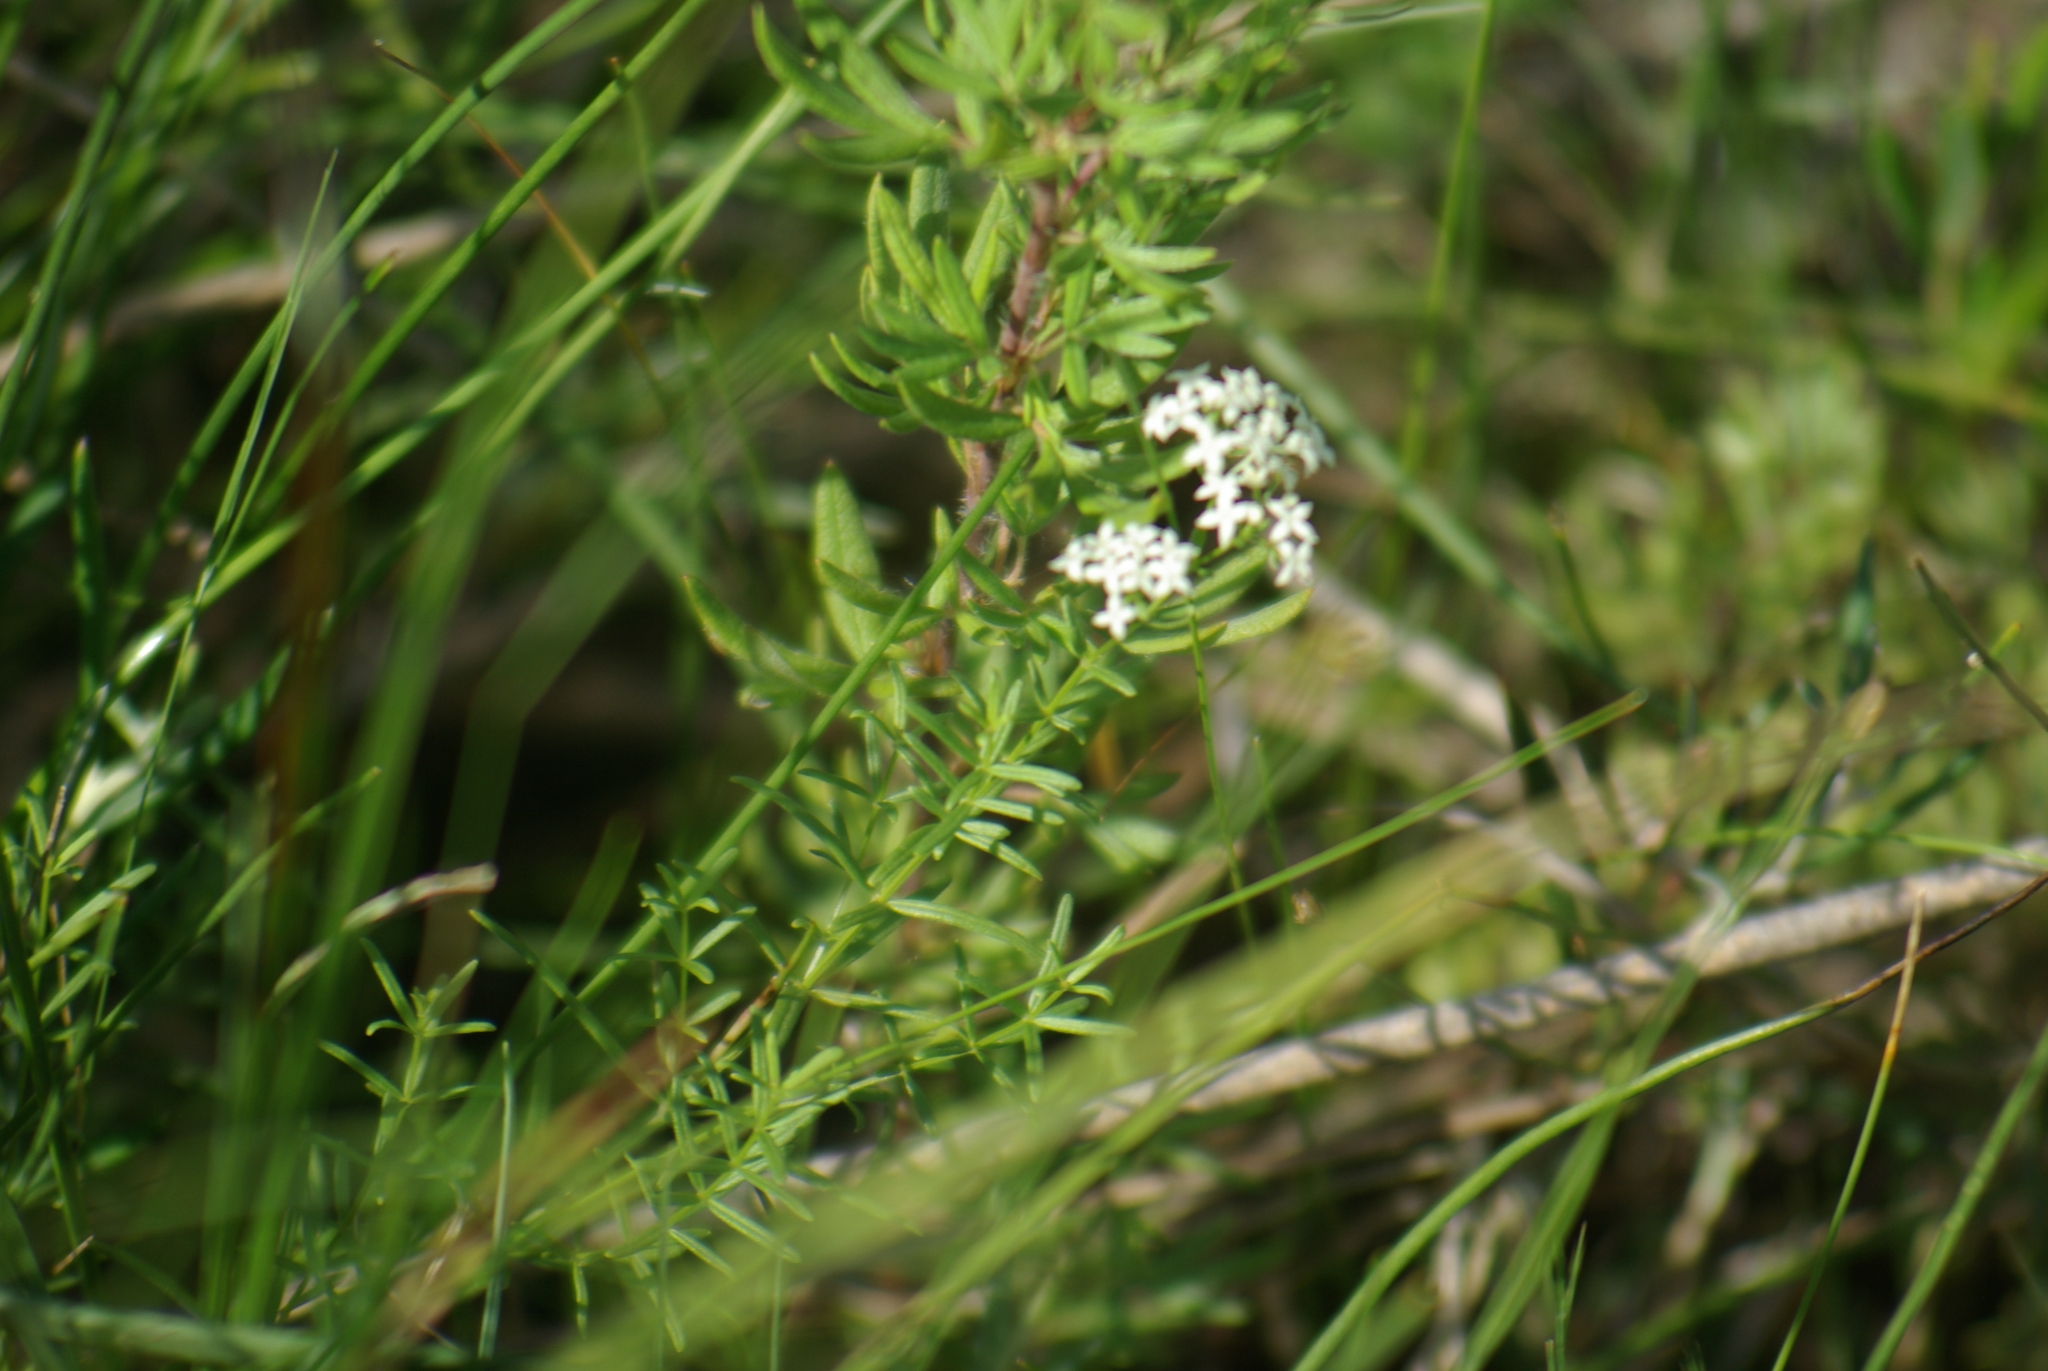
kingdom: Plantae
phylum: Tracheophyta
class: Magnoliopsida
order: Gentianales
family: Rubiaceae
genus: Galium
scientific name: Galium boreale
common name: Northern bedstraw
